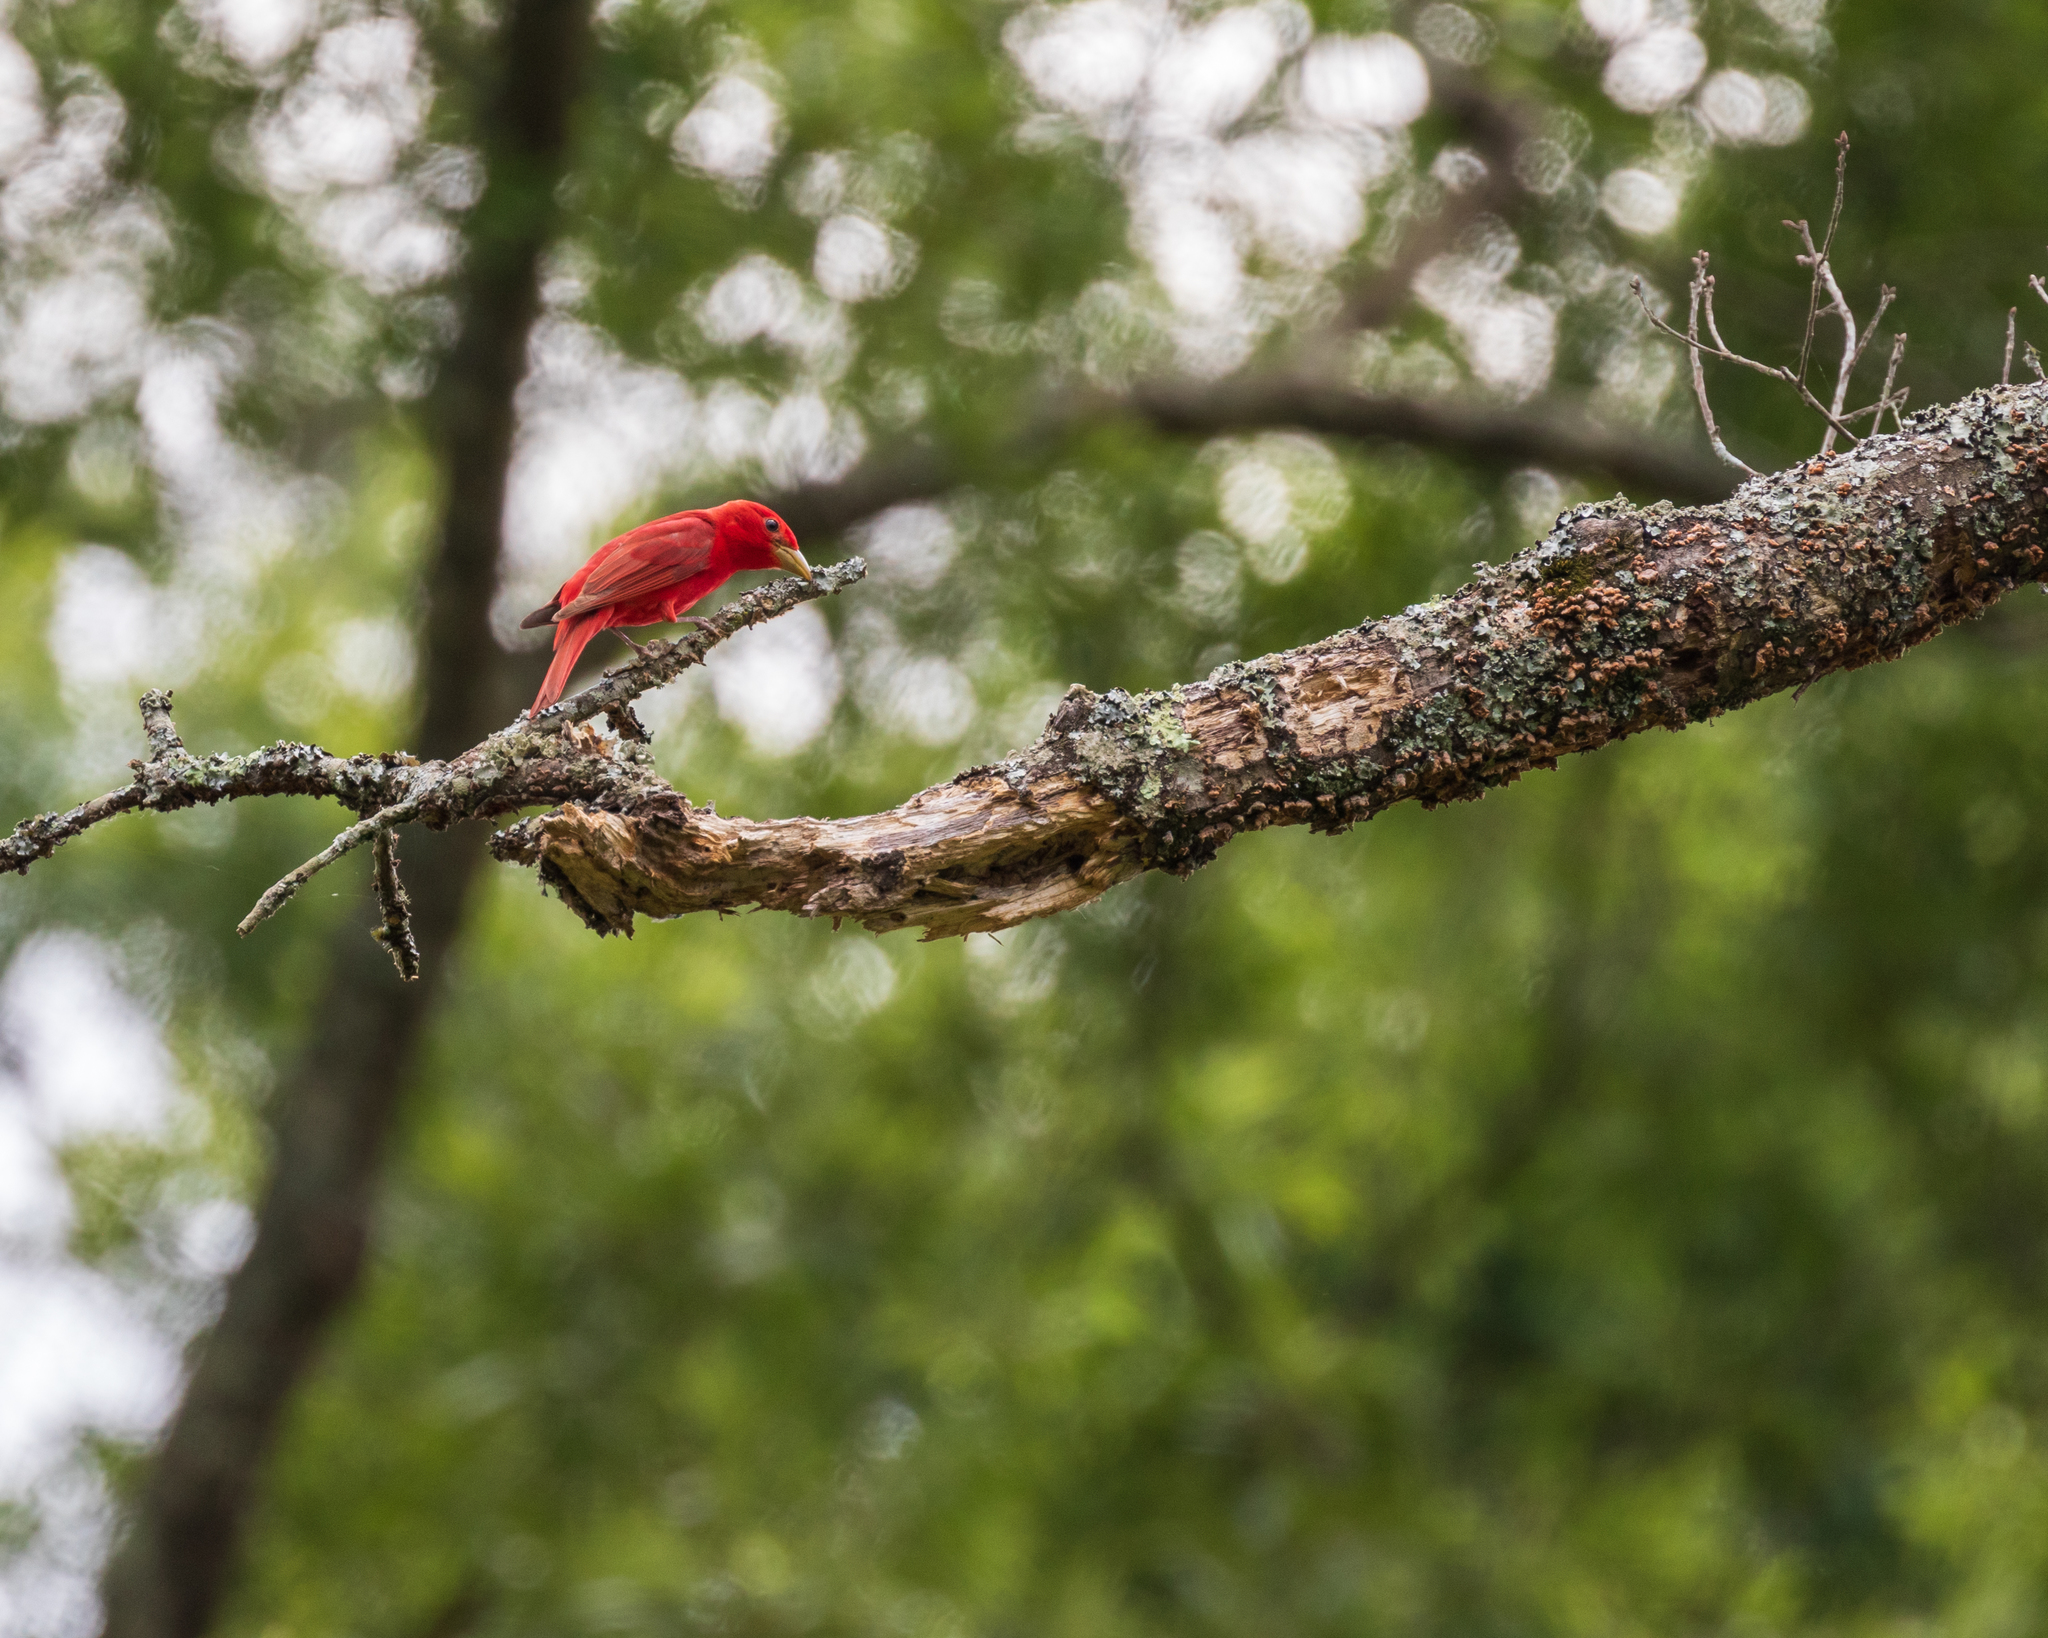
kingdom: Animalia
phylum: Chordata
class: Aves
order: Passeriformes
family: Cardinalidae
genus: Piranga
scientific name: Piranga rubra
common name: Summer tanager
